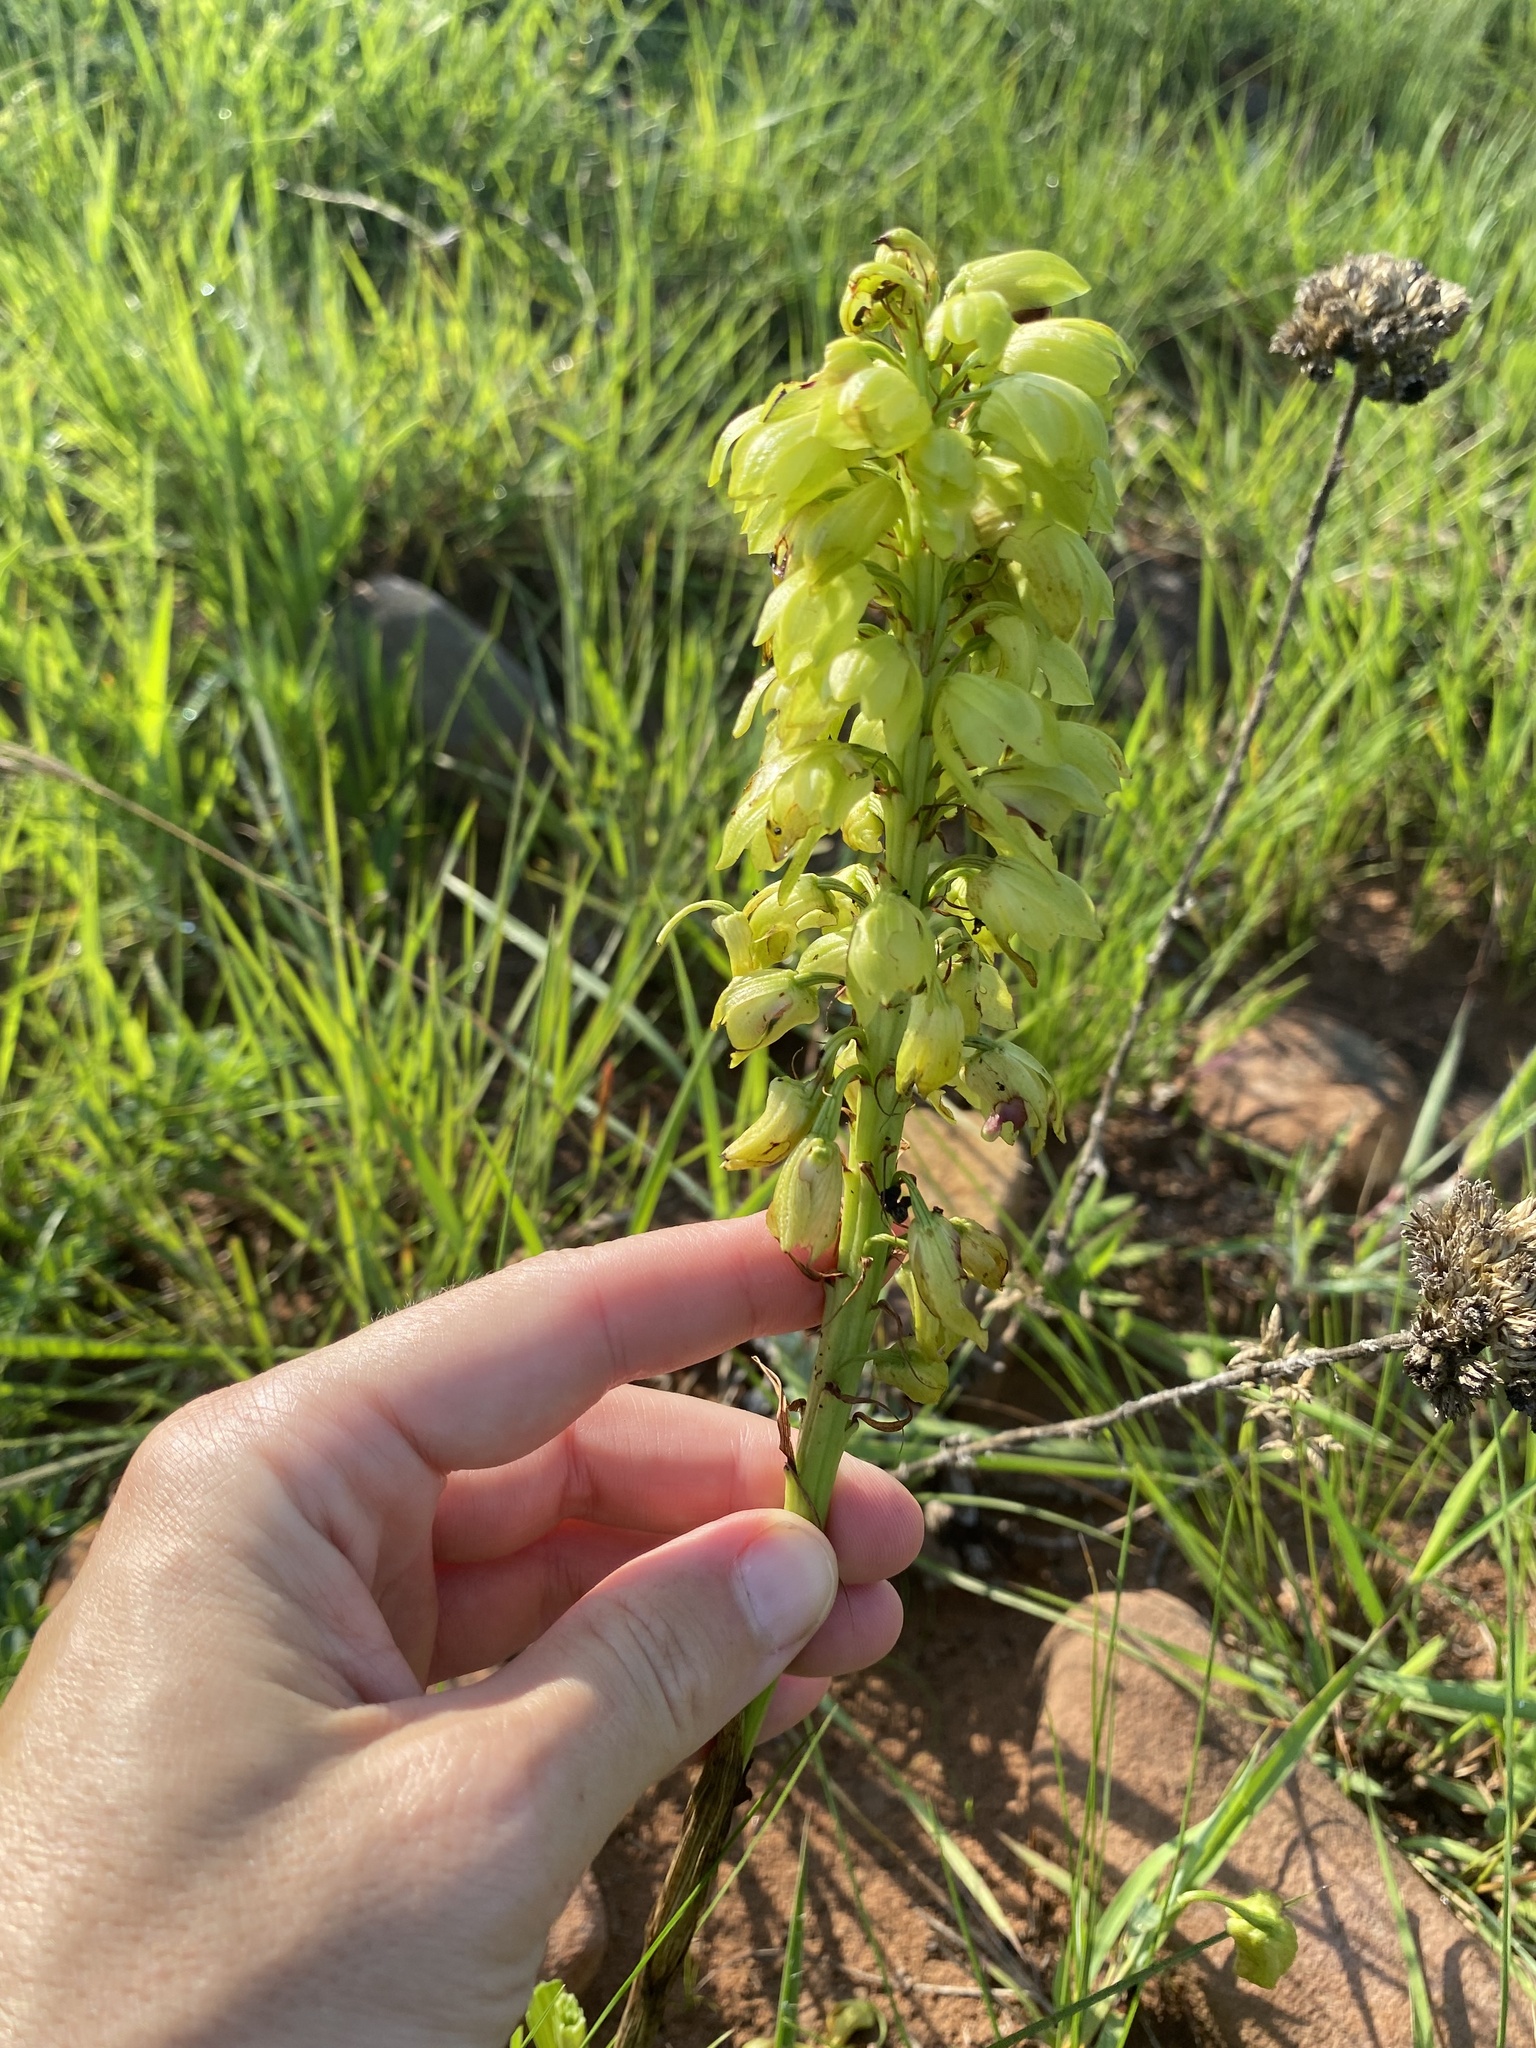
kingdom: Plantae
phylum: Tracheophyta
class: Liliopsida
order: Asparagales
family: Orchidaceae
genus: Eulophia
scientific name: Eulophia foliosa
